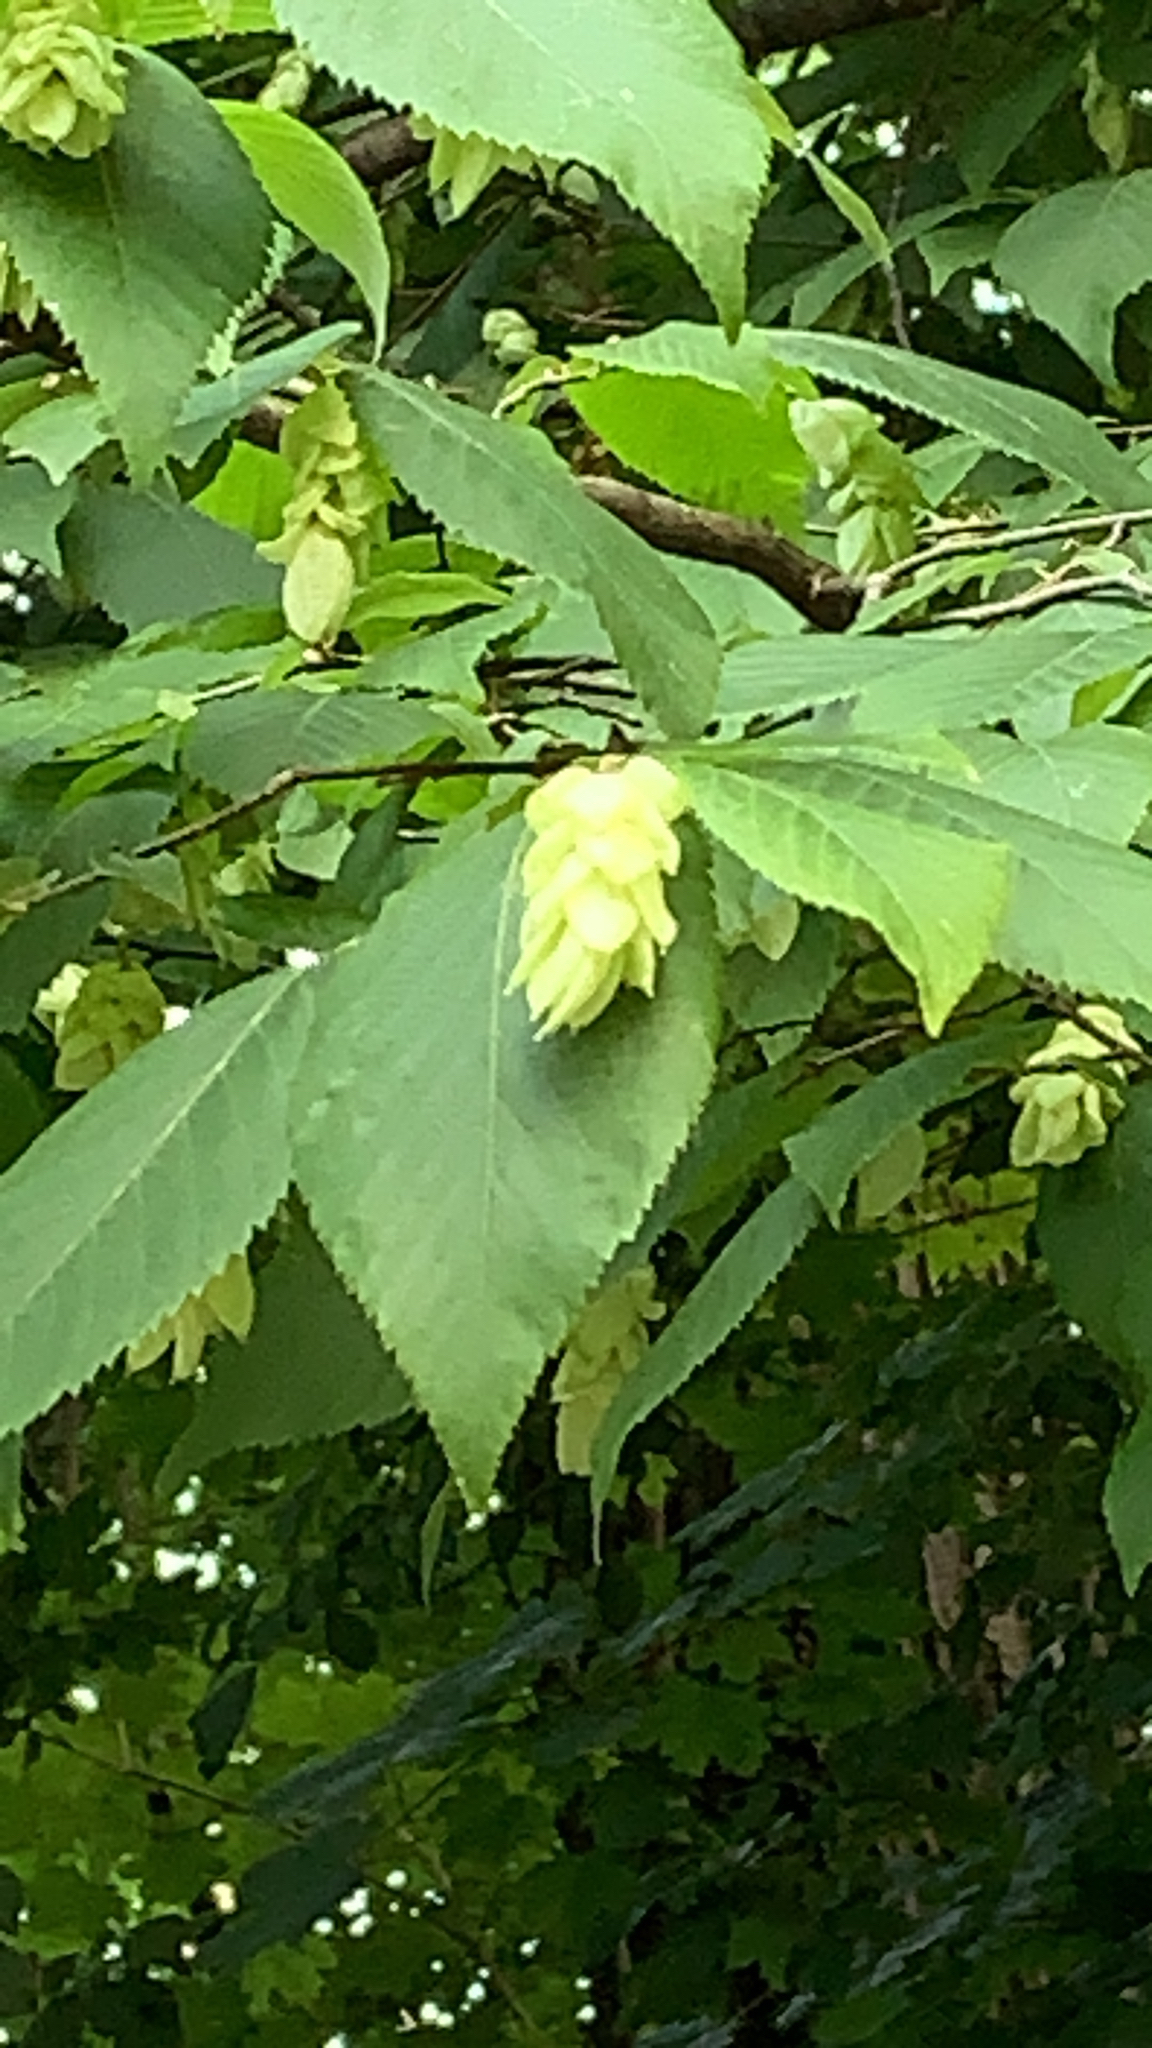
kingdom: Plantae
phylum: Tracheophyta
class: Magnoliopsida
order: Fagales
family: Betulaceae
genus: Ostrya
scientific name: Ostrya virginiana
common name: Ironwood
